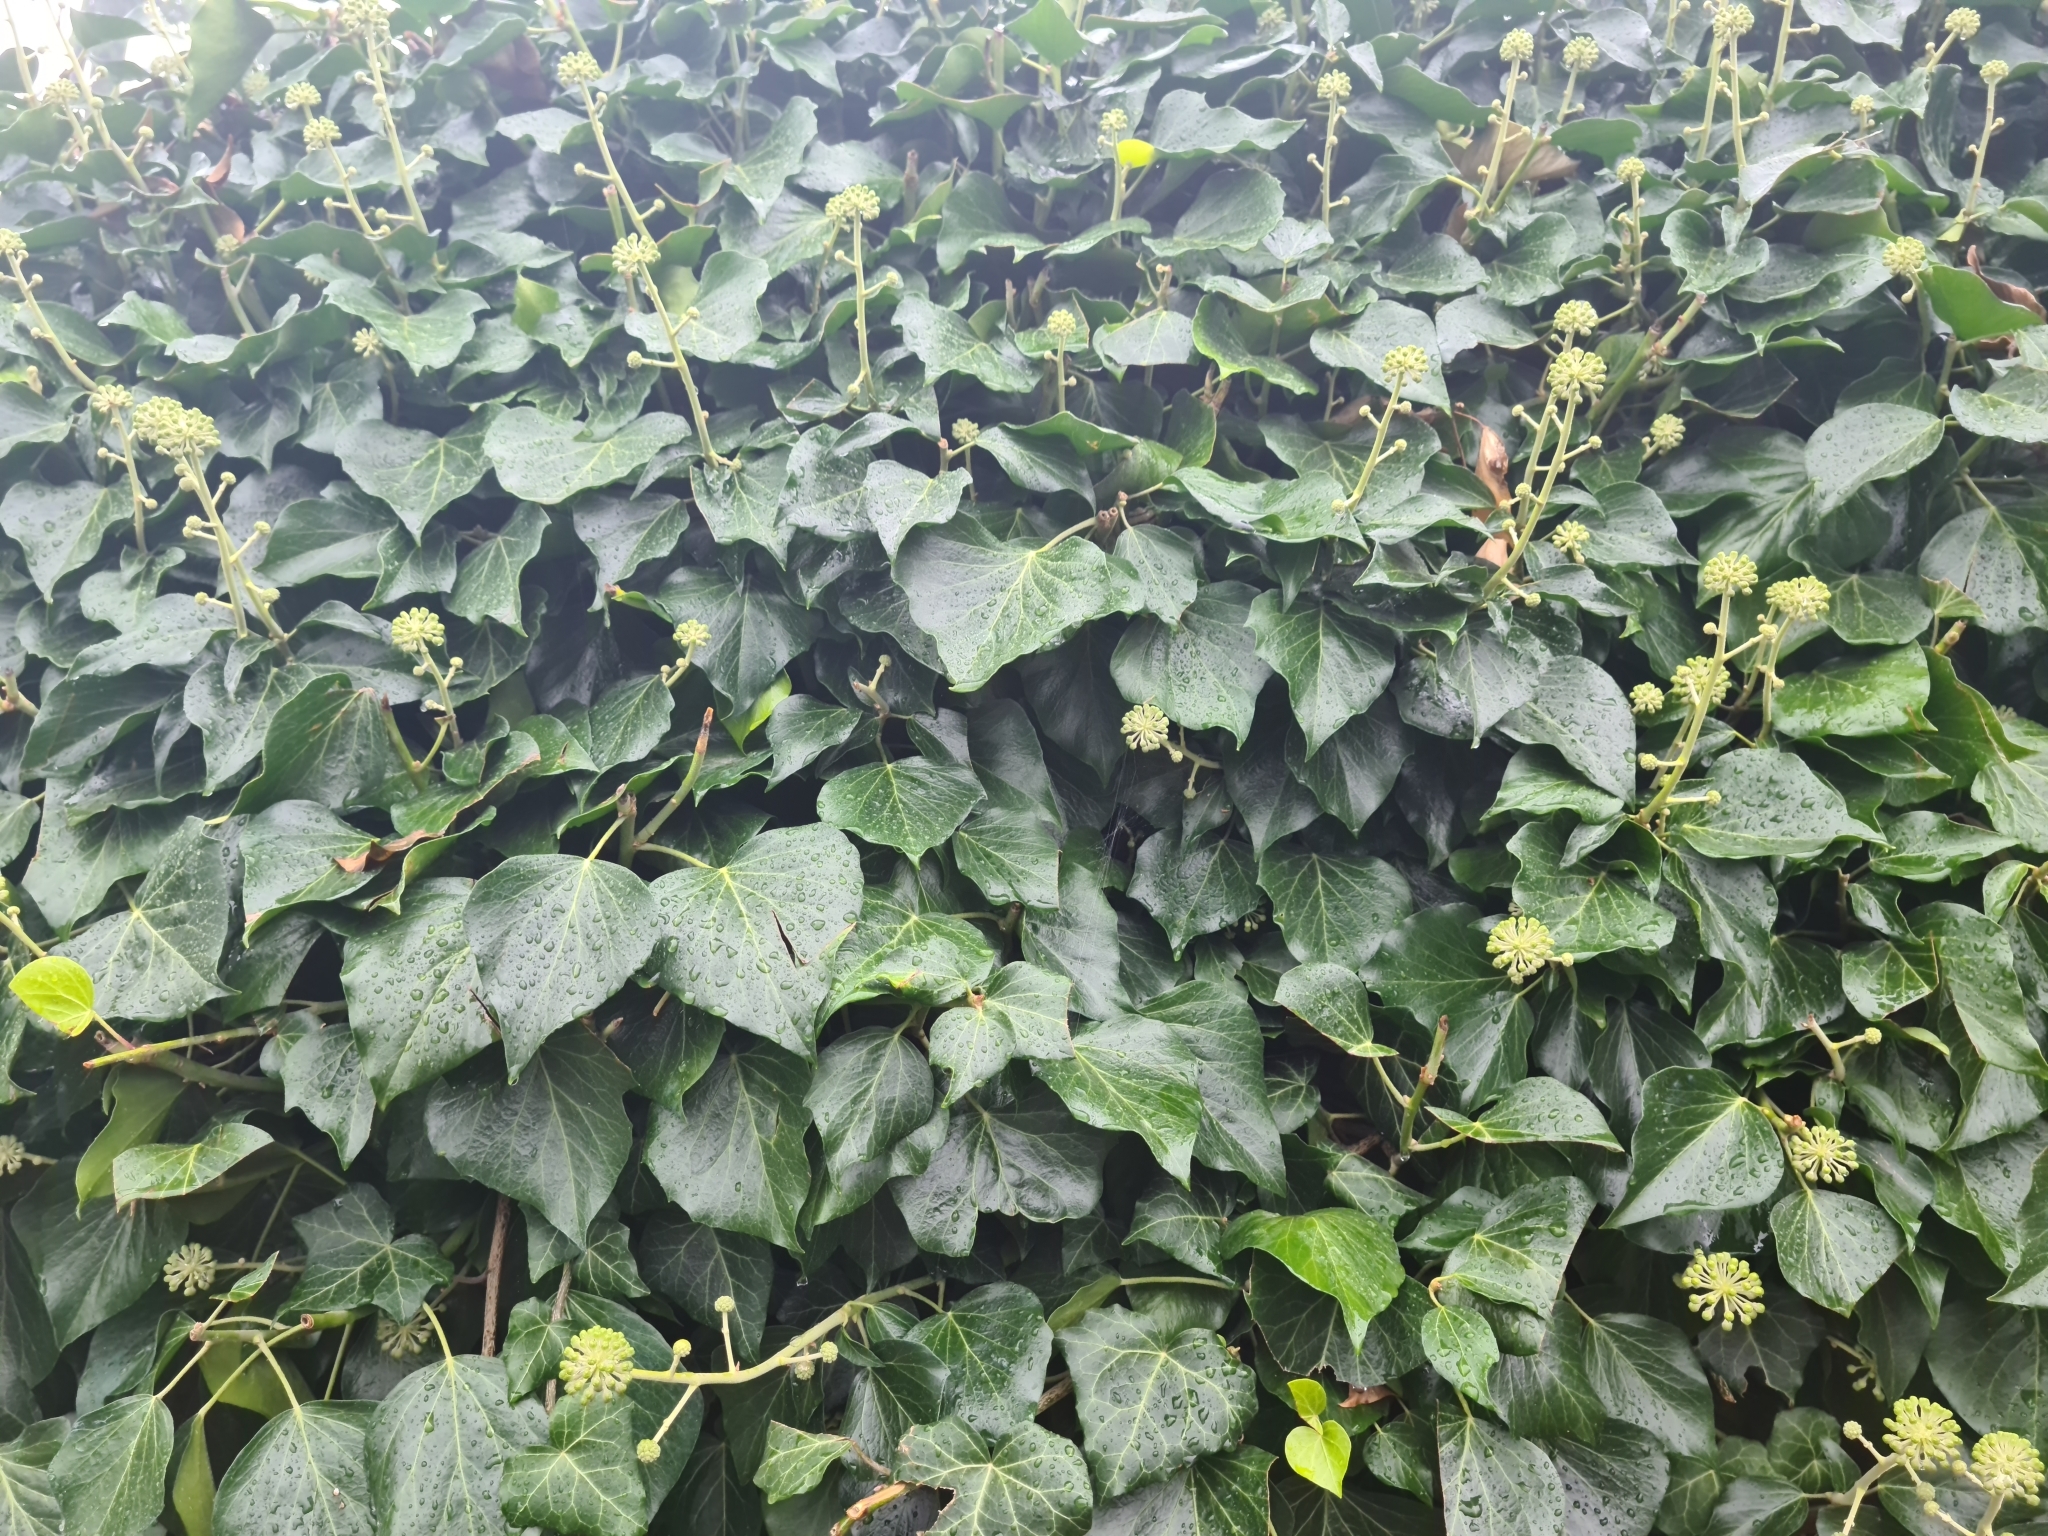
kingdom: Plantae
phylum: Tracheophyta
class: Magnoliopsida
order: Apiales
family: Araliaceae
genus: Hedera
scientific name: Hedera helix
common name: Ivy
